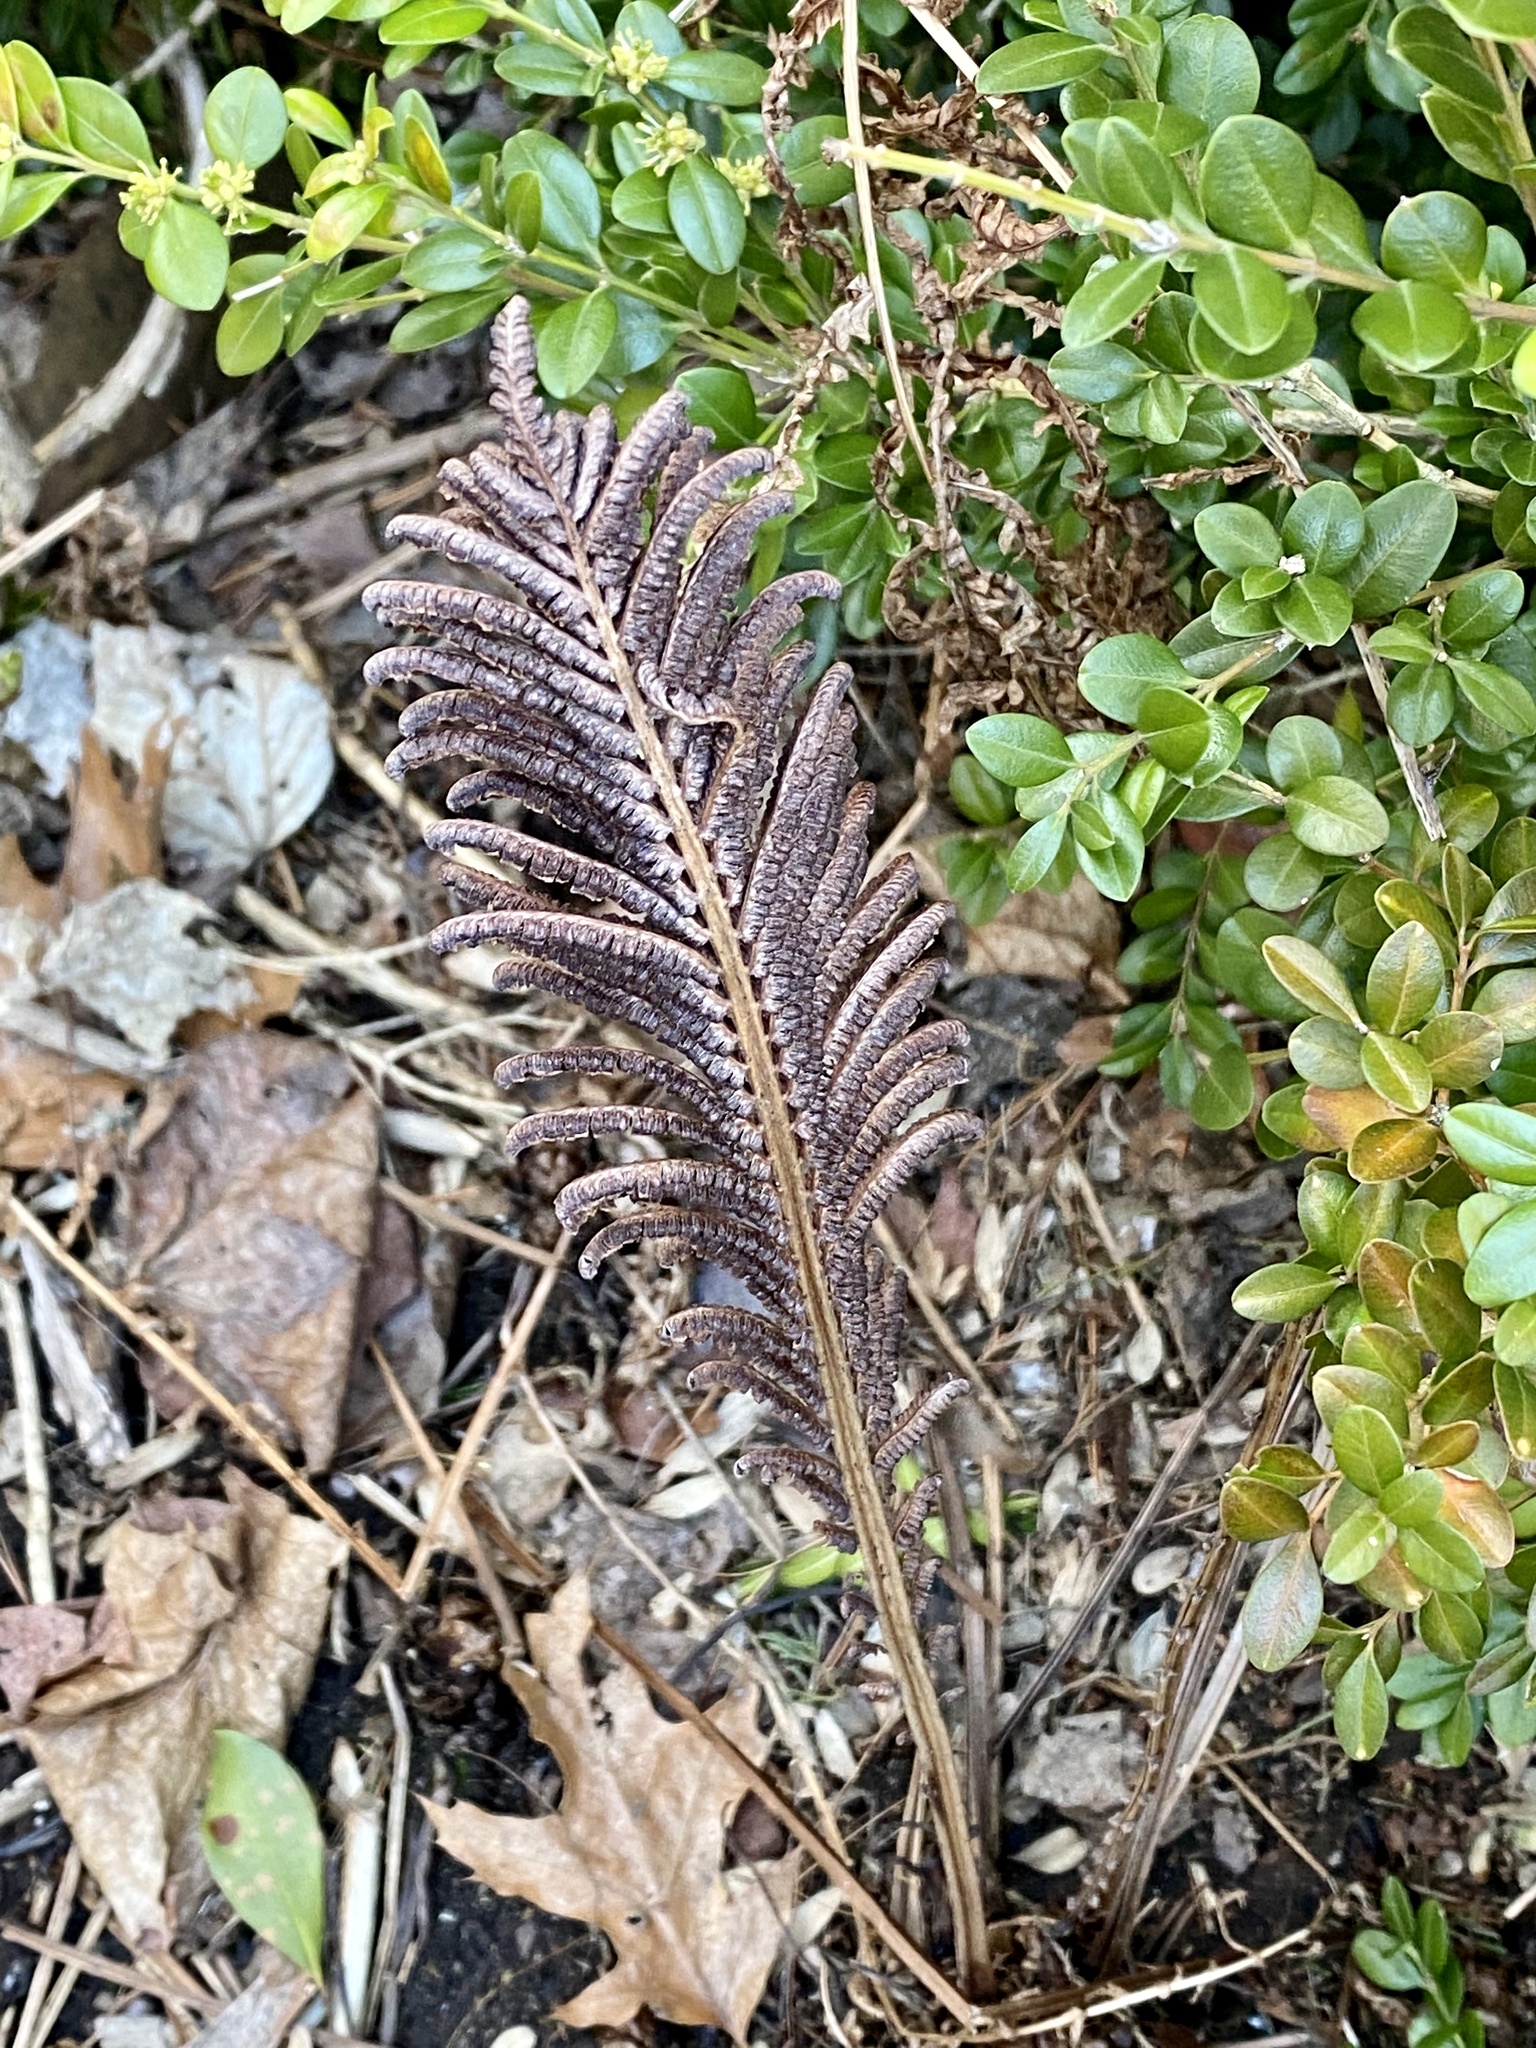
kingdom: Plantae
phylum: Tracheophyta
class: Polypodiopsida
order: Polypodiales
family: Onocleaceae
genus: Matteuccia
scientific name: Matteuccia struthiopteris
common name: Ostrich fern
